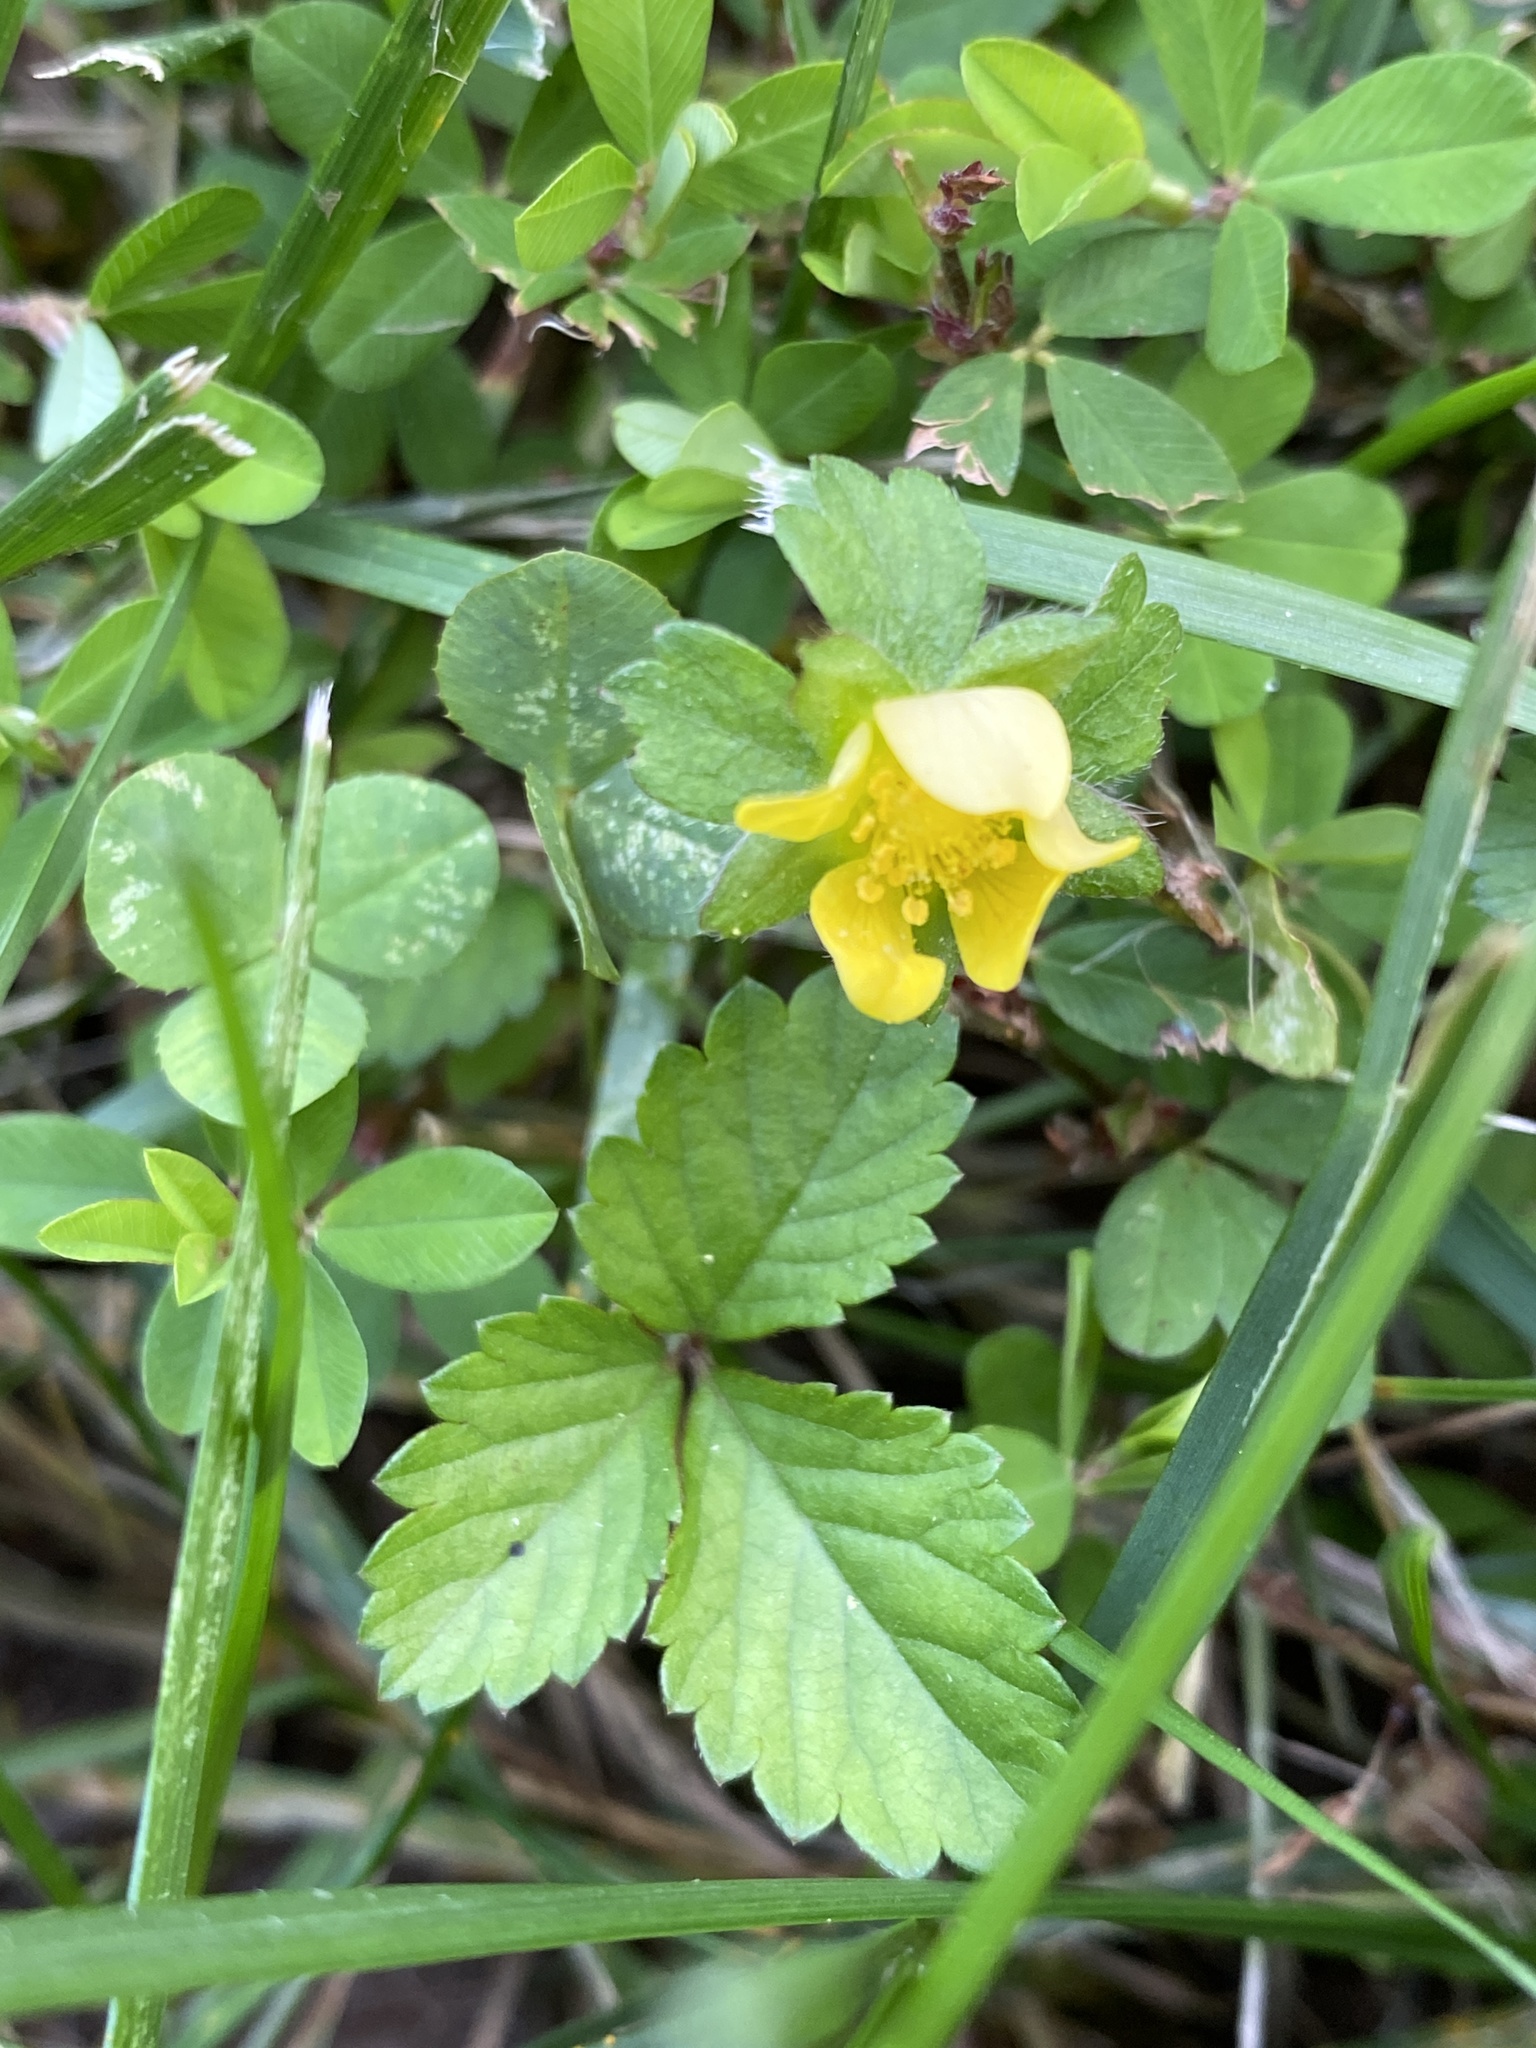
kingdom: Plantae
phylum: Tracheophyta
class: Magnoliopsida
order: Rosales
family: Rosaceae
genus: Potentilla
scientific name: Potentilla indica
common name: Yellow-flowered strawberry
